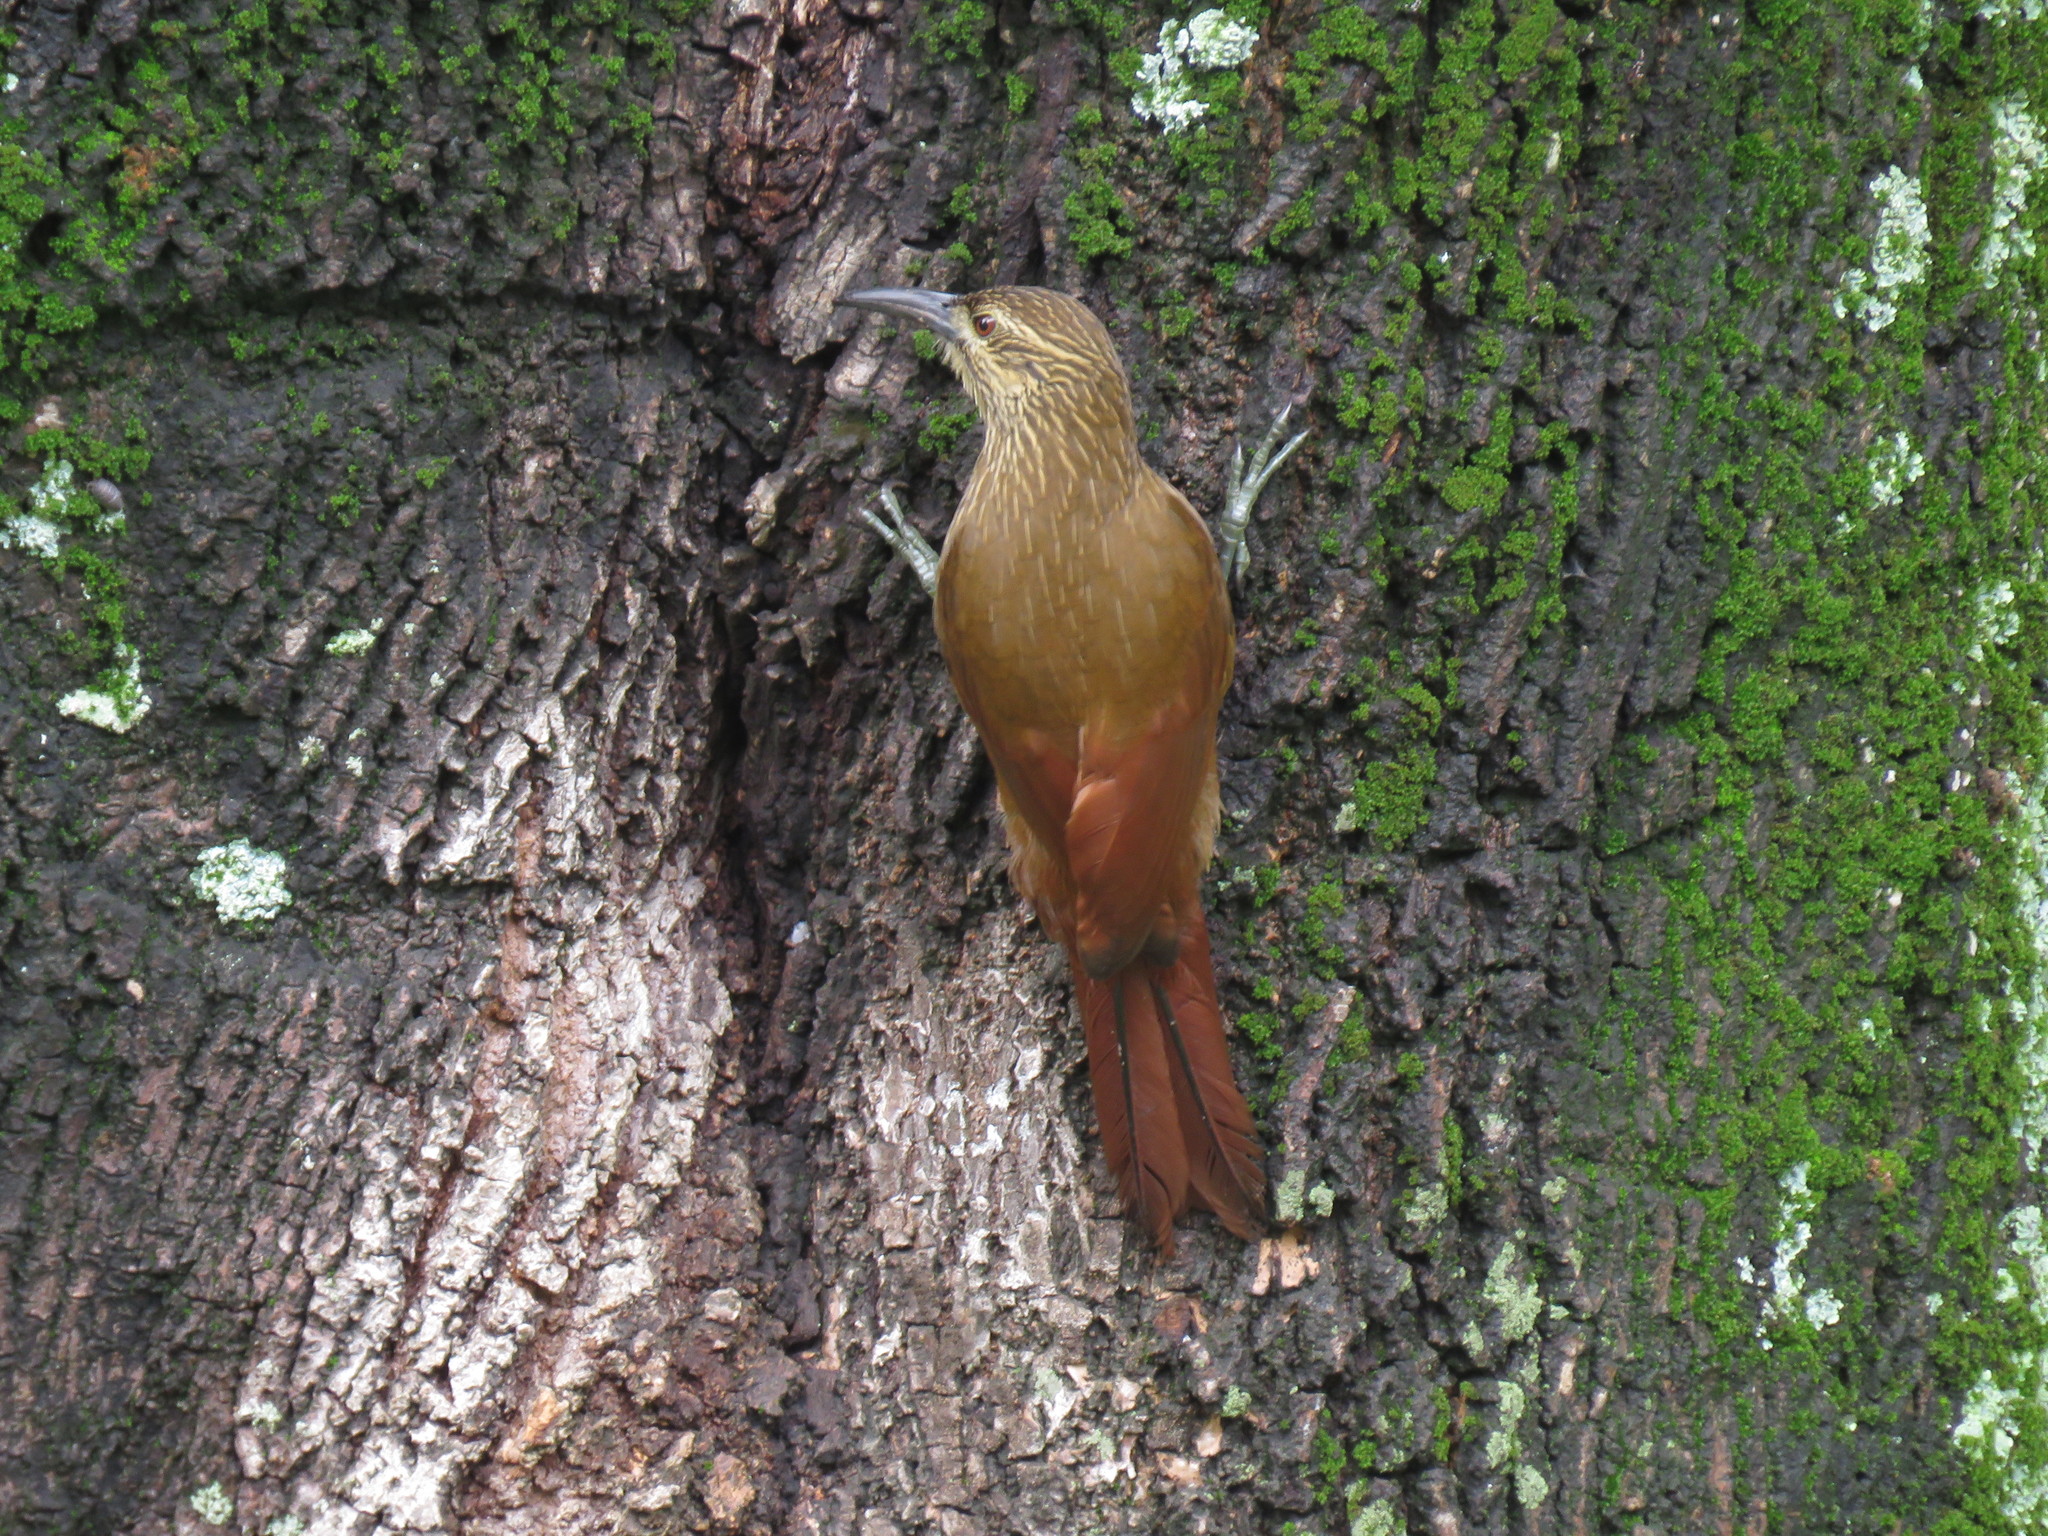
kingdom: Animalia
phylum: Chordata
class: Aves
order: Passeriformes
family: Furnariidae
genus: Xiphocolaptes
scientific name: Xiphocolaptes promeropirhynchus
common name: Strong-billed woodcreeper
